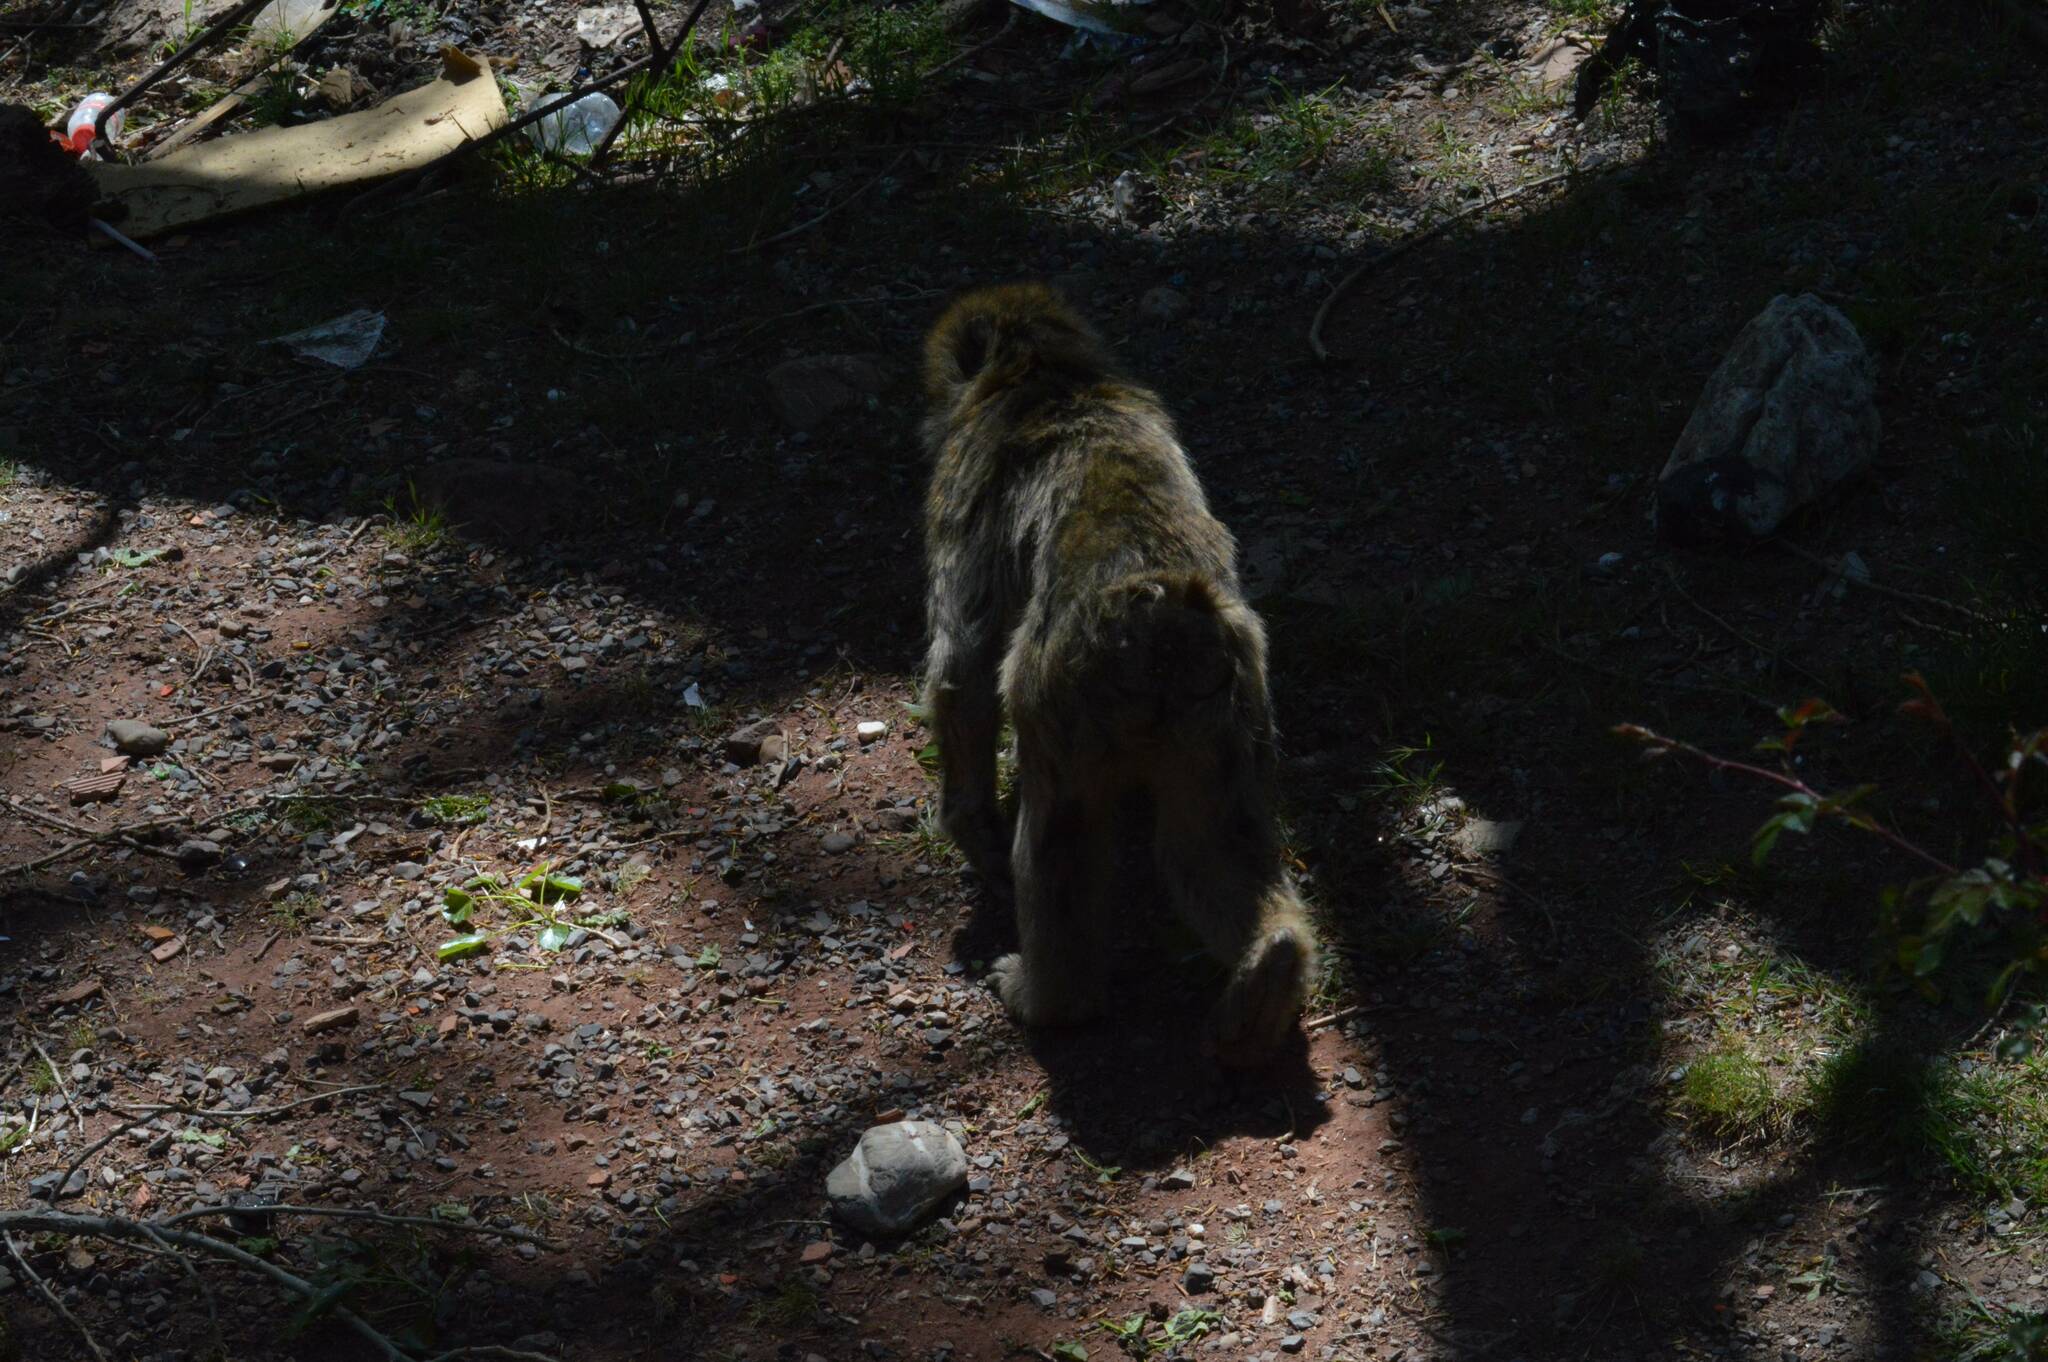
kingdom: Animalia
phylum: Chordata
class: Mammalia
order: Primates
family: Cercopithecidae
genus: Macaca
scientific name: Macaca sylvanus
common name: Barbary macaque
